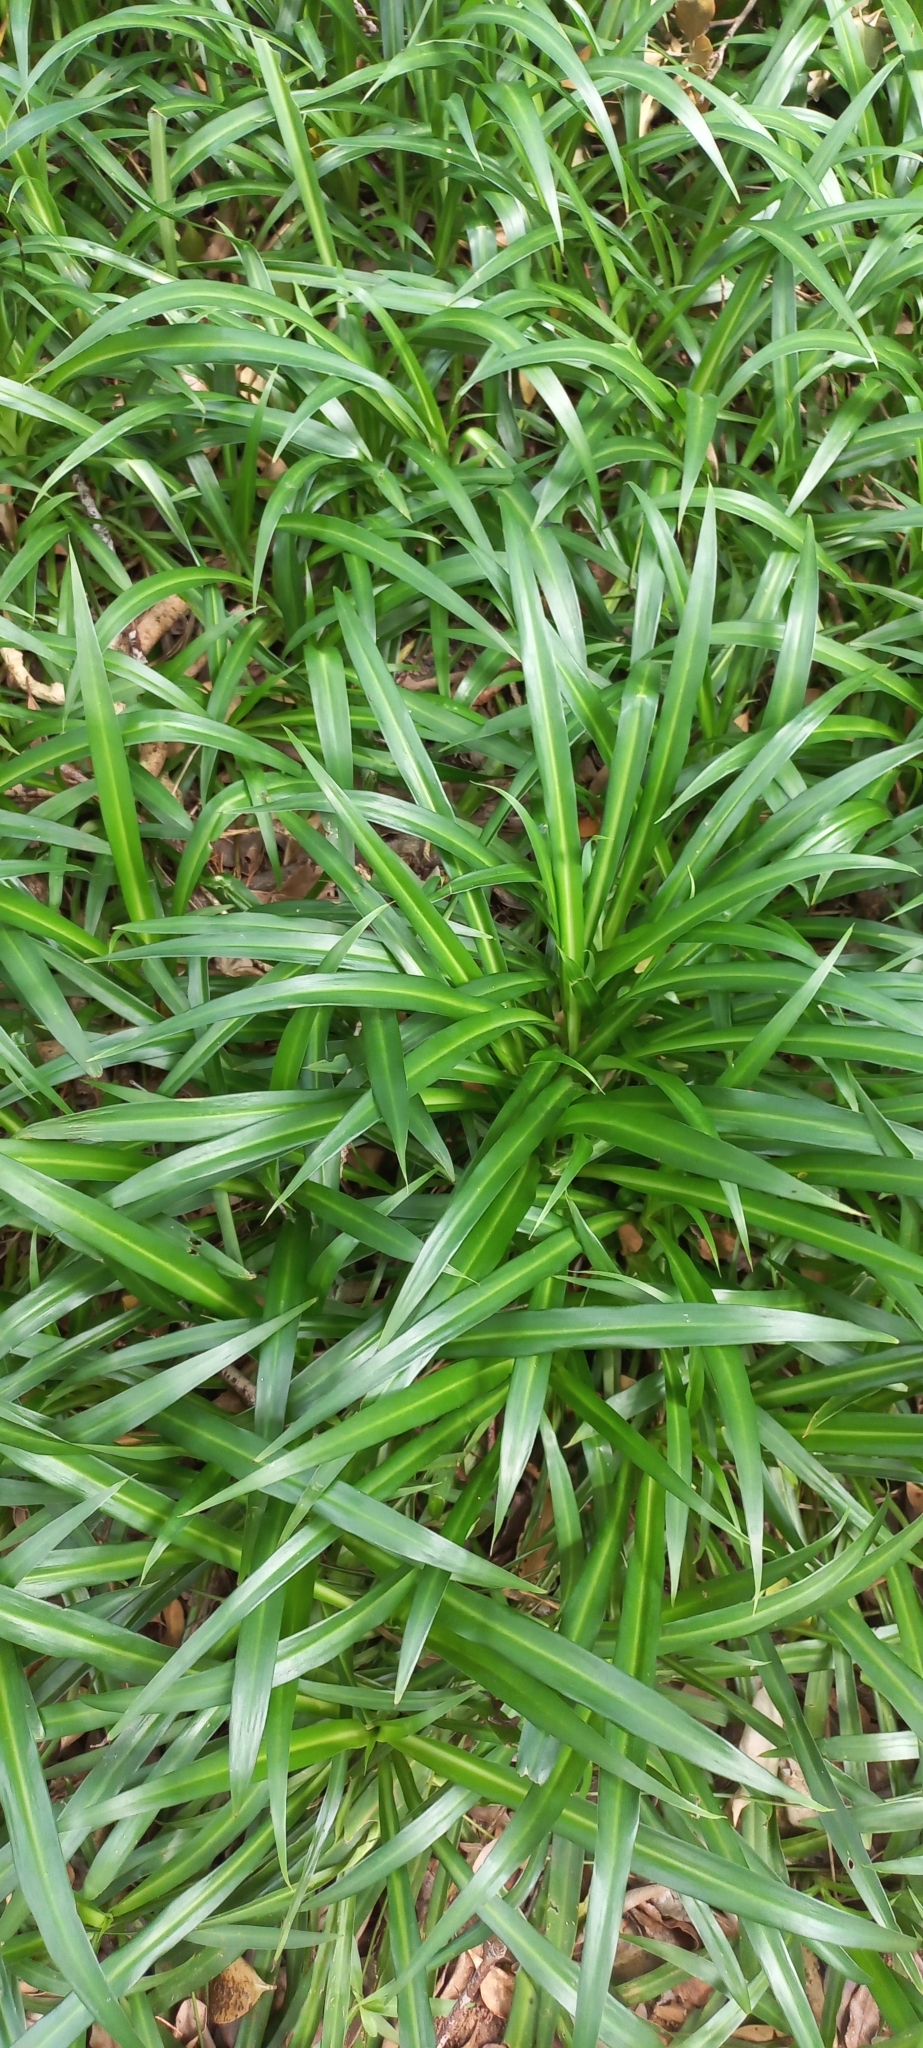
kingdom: Plantae
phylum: Tracheophyta
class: Liliopsida
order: Asparagales
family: Asparagaceae
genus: Chlorophytum
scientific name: Chlorophytum comosum
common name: Spider plant
